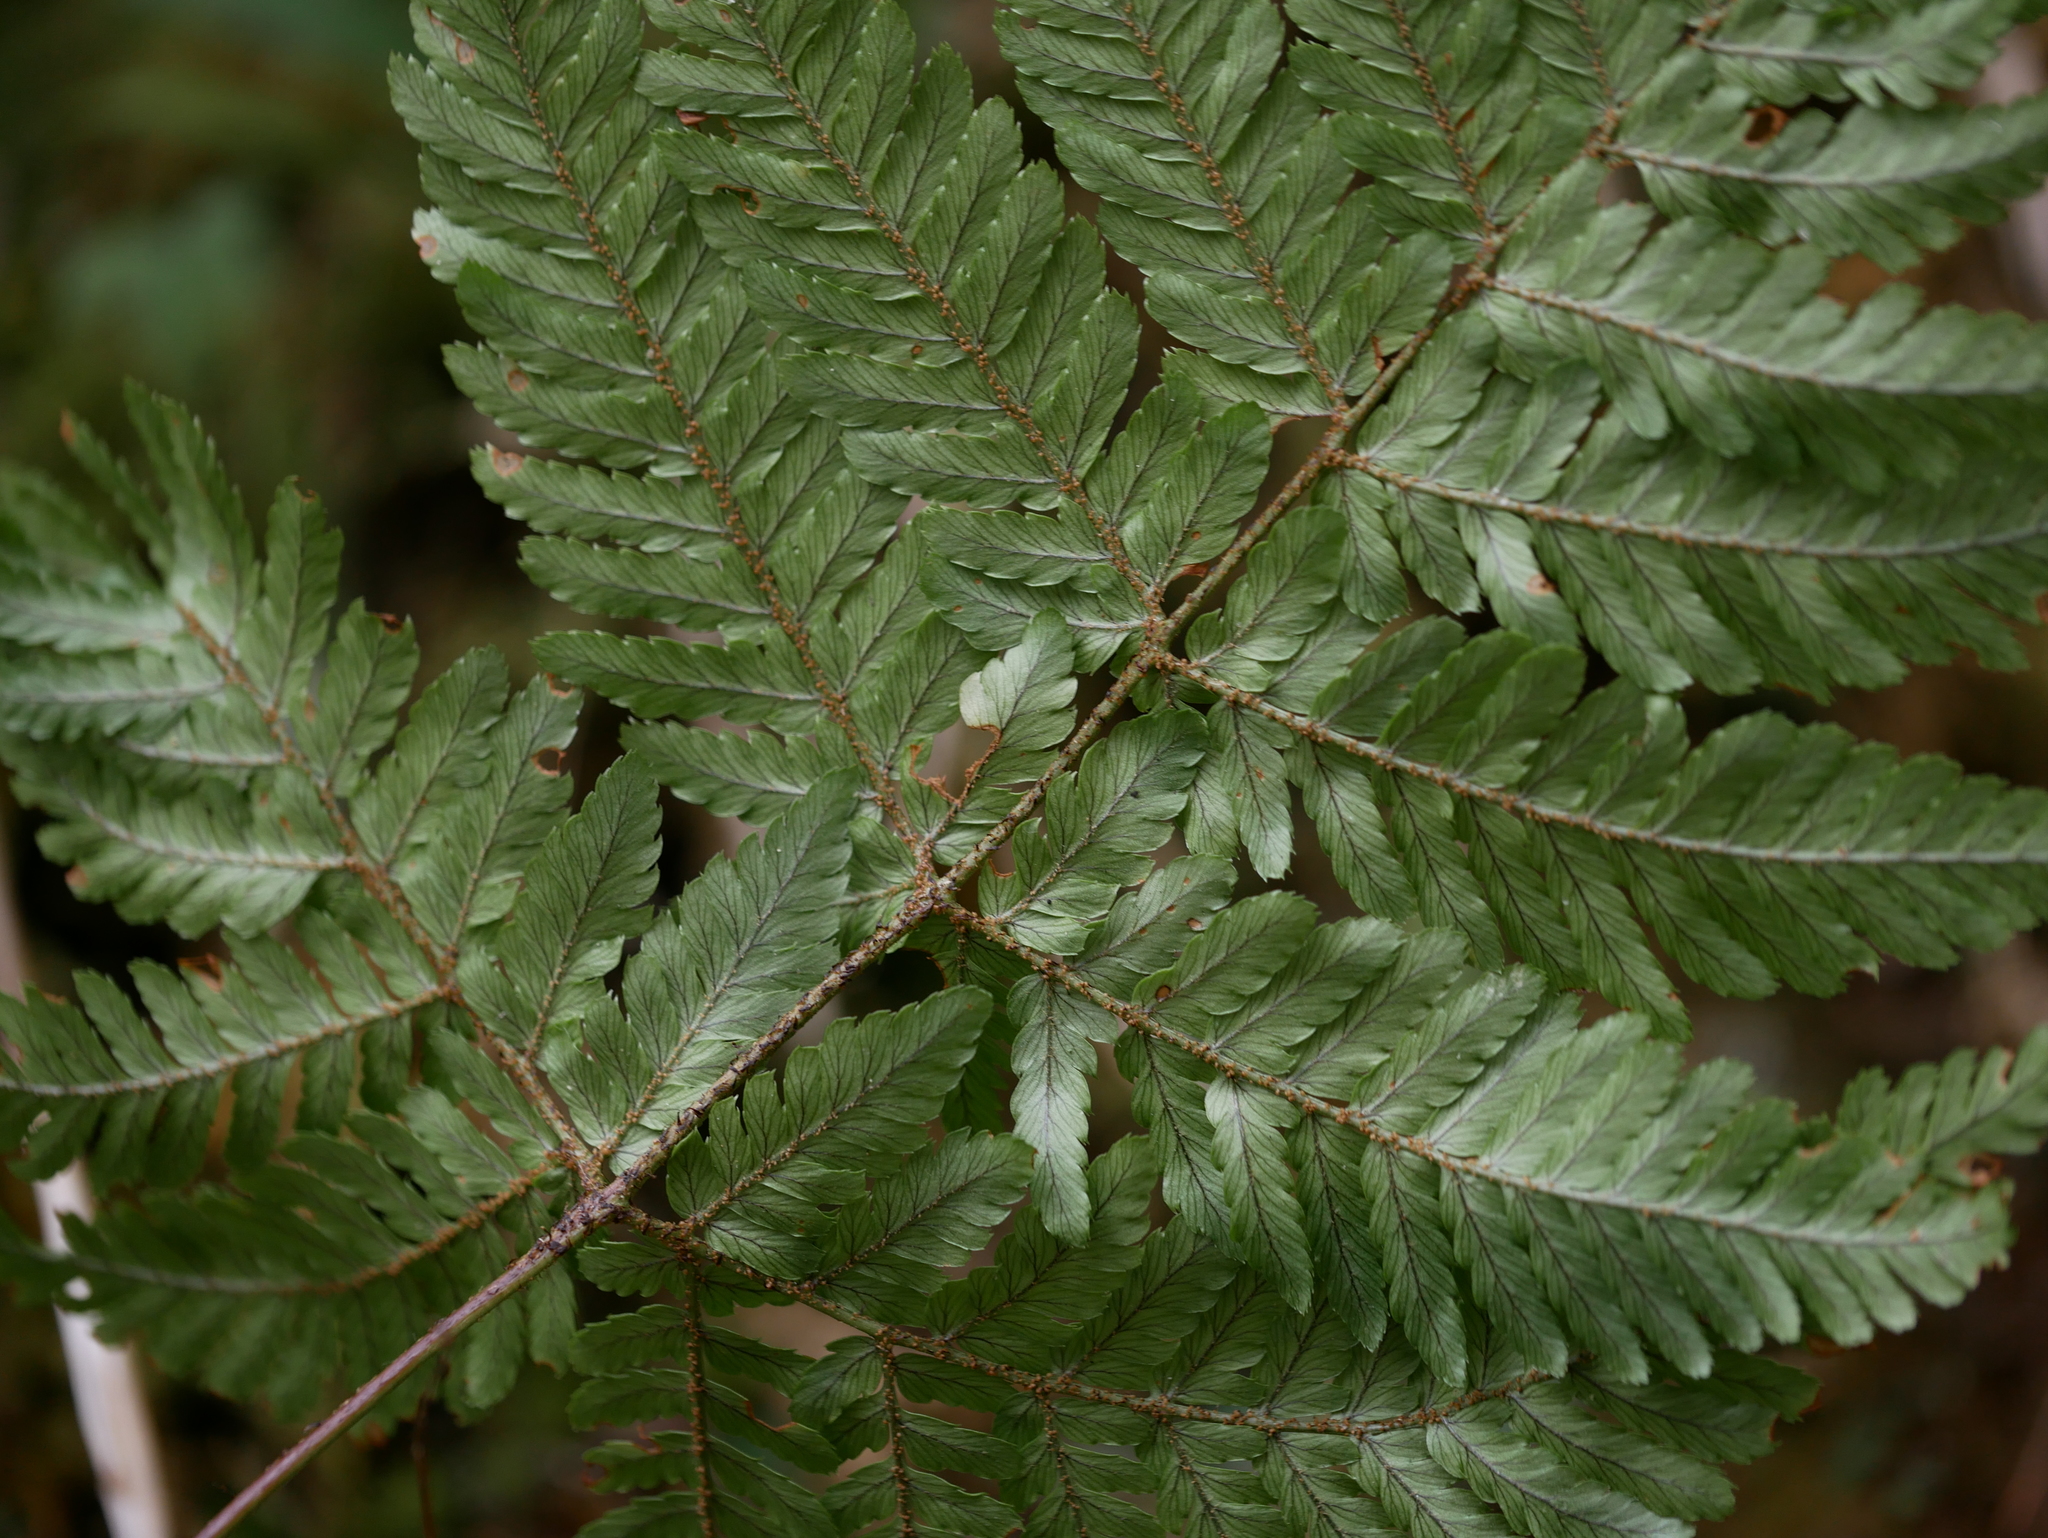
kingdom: Plantae
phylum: Tracheophyta
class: Polypodiopsida
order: Polypodiales
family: Dryopteridaceae
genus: Dryopteris
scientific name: Dryopteris formosana
